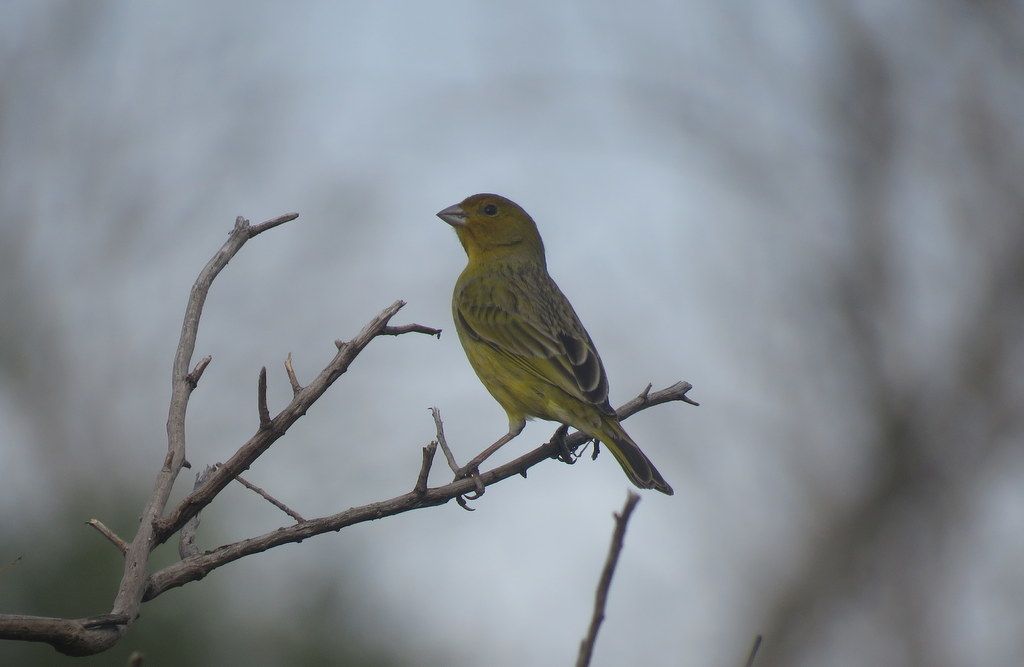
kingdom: Animalia
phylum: Chordata
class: Aves
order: Passeriformes
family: Thraupidae
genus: Sicalis
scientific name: Sicalis flaveola
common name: Saffron finch
